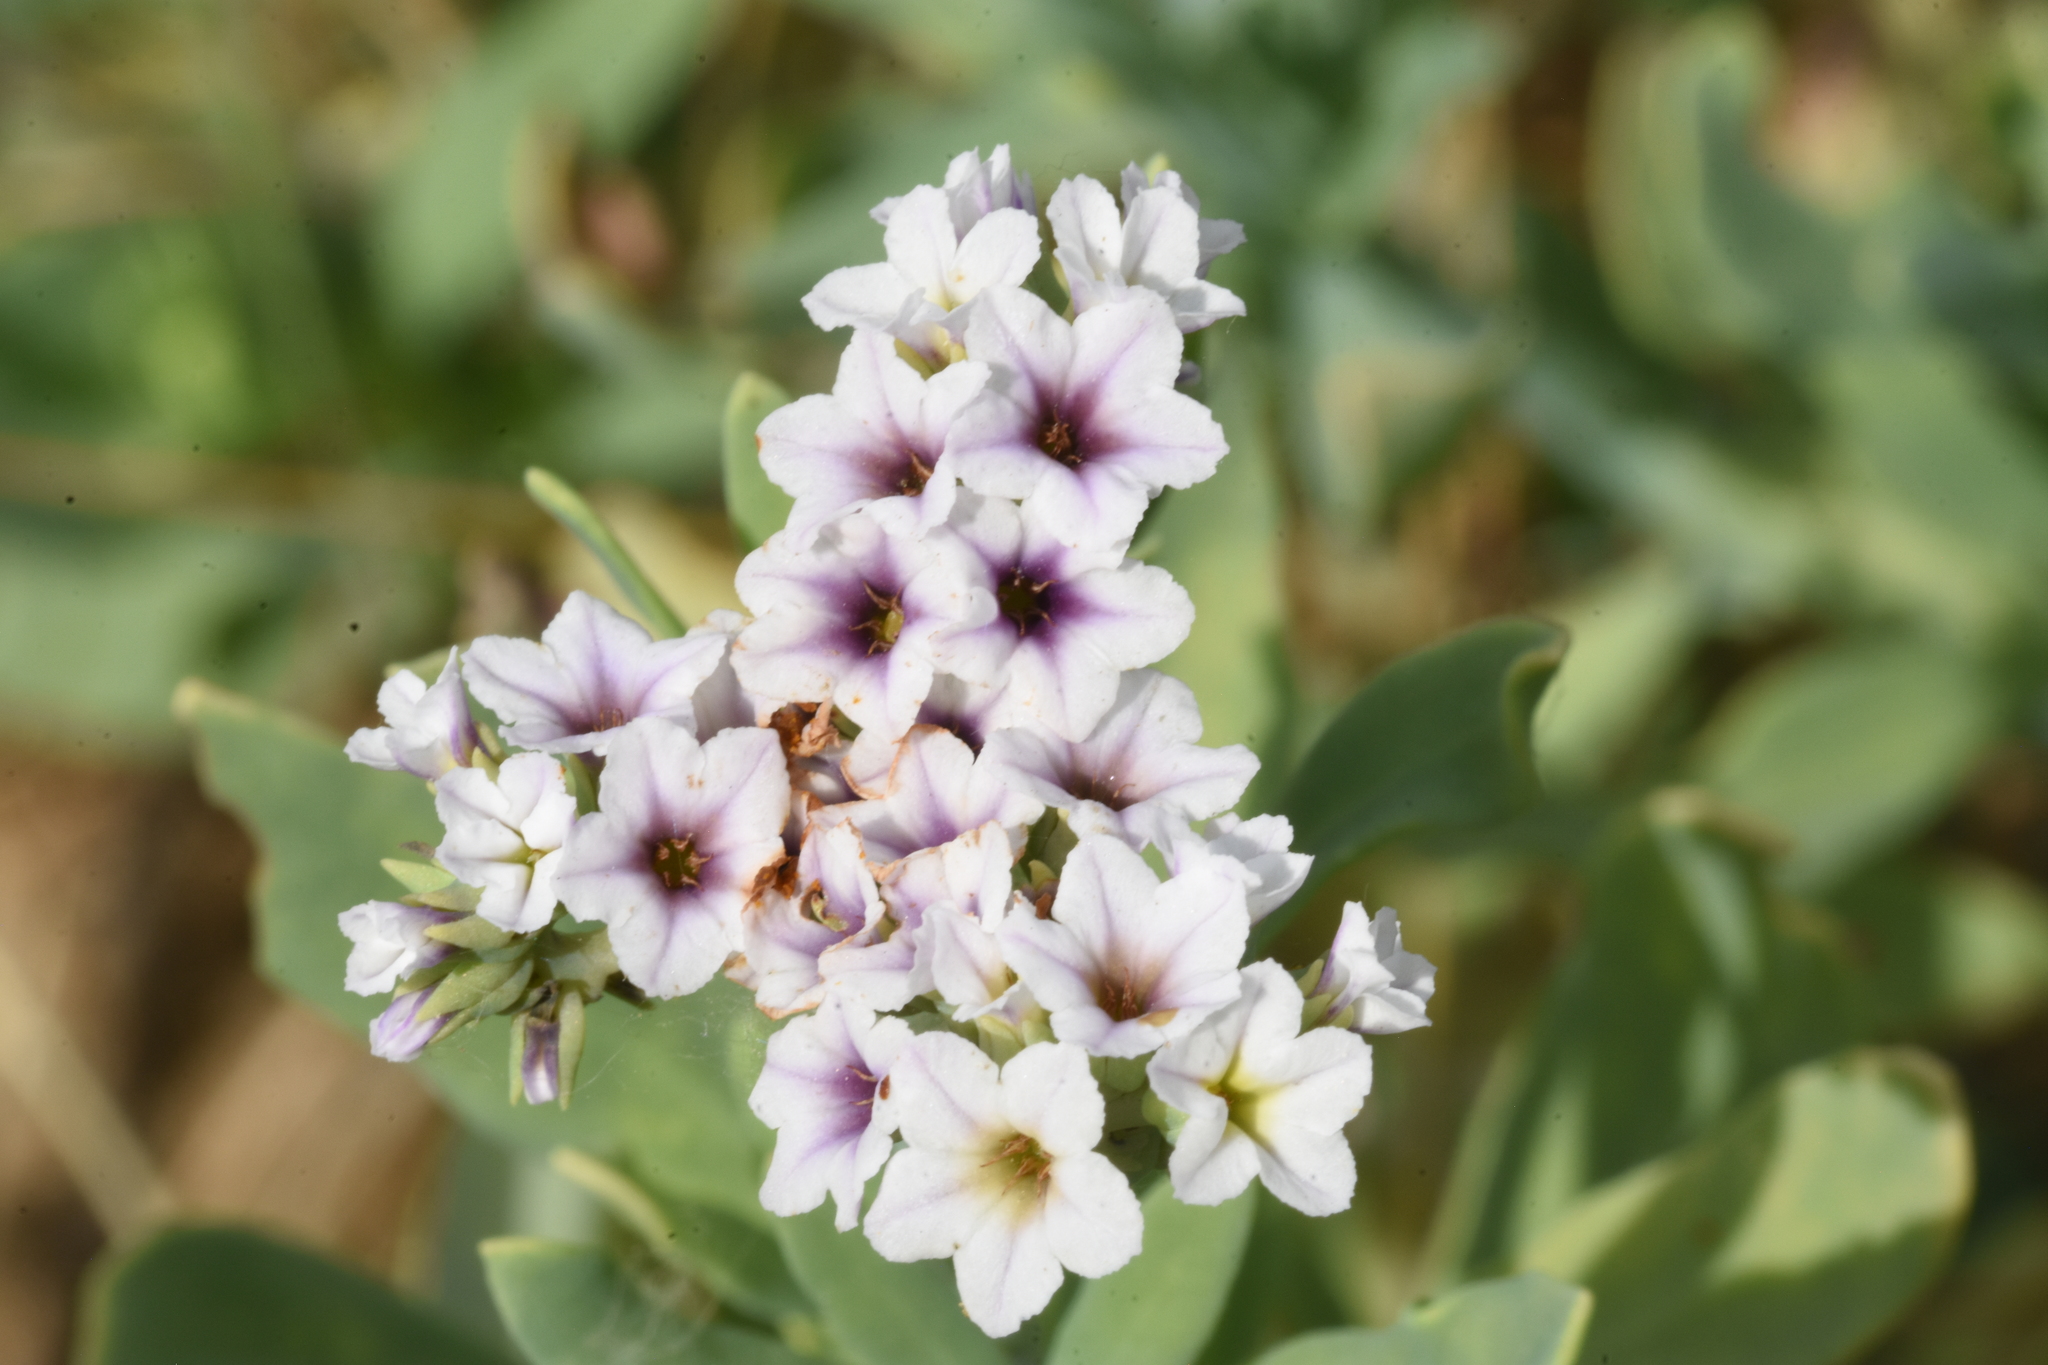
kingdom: Plantae
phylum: Tracheophyta
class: Magnoliopsida
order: Boraginales
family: Heliotropiaceae
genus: Heliotropium
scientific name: Heliotropium curassavicum
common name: Seaside heliotrope
